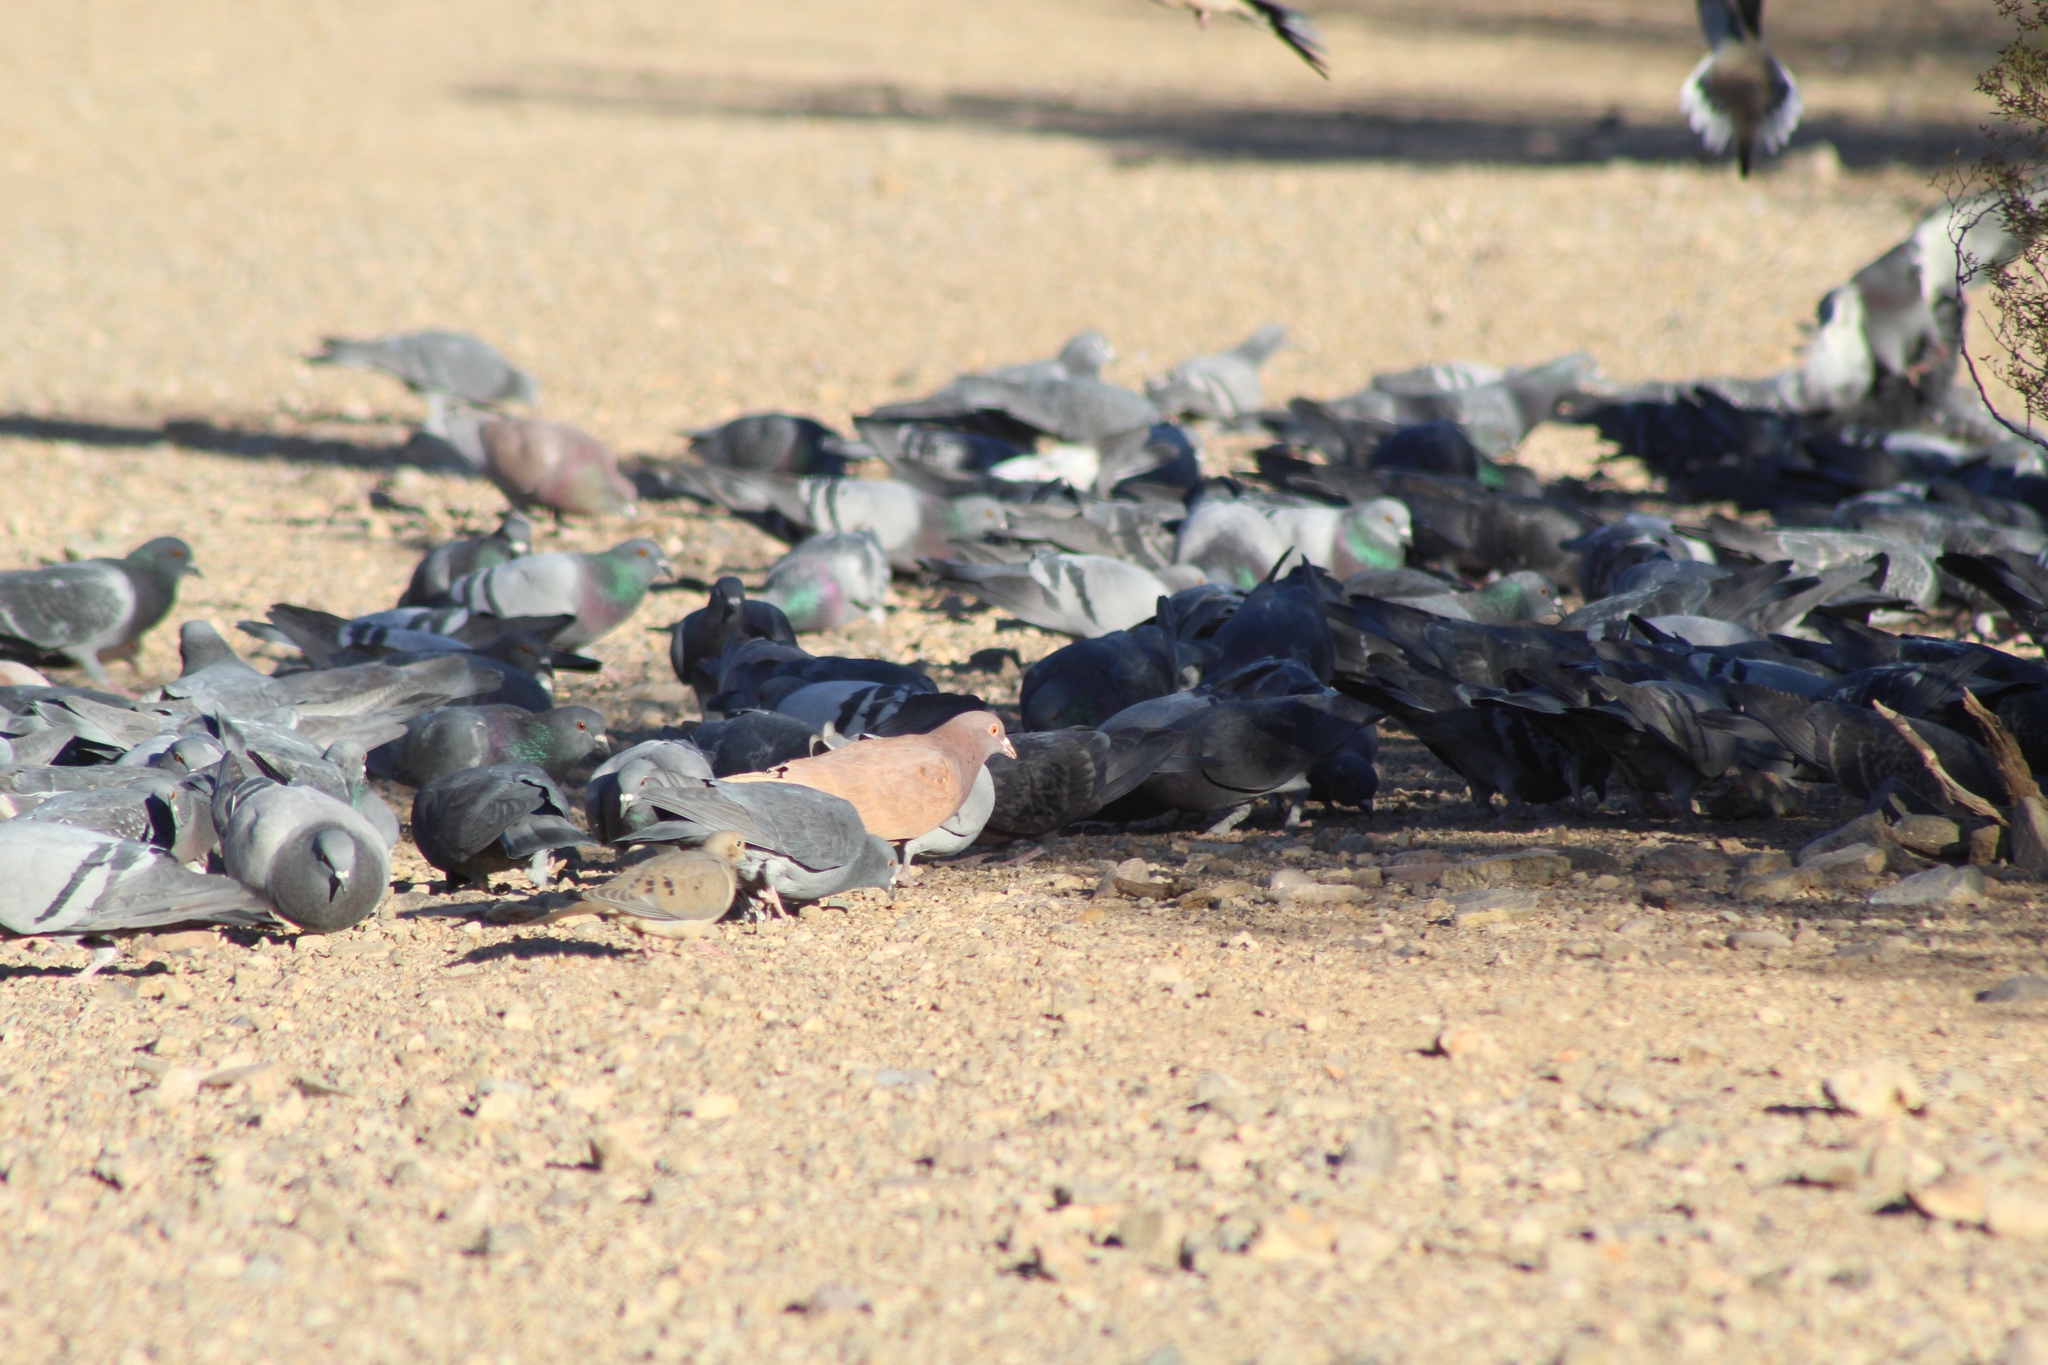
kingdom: Animalia
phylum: Chordata
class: Aves
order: Columbiformes
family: Columbidae
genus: Columba
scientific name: Columba livia
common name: Rock pigeon
